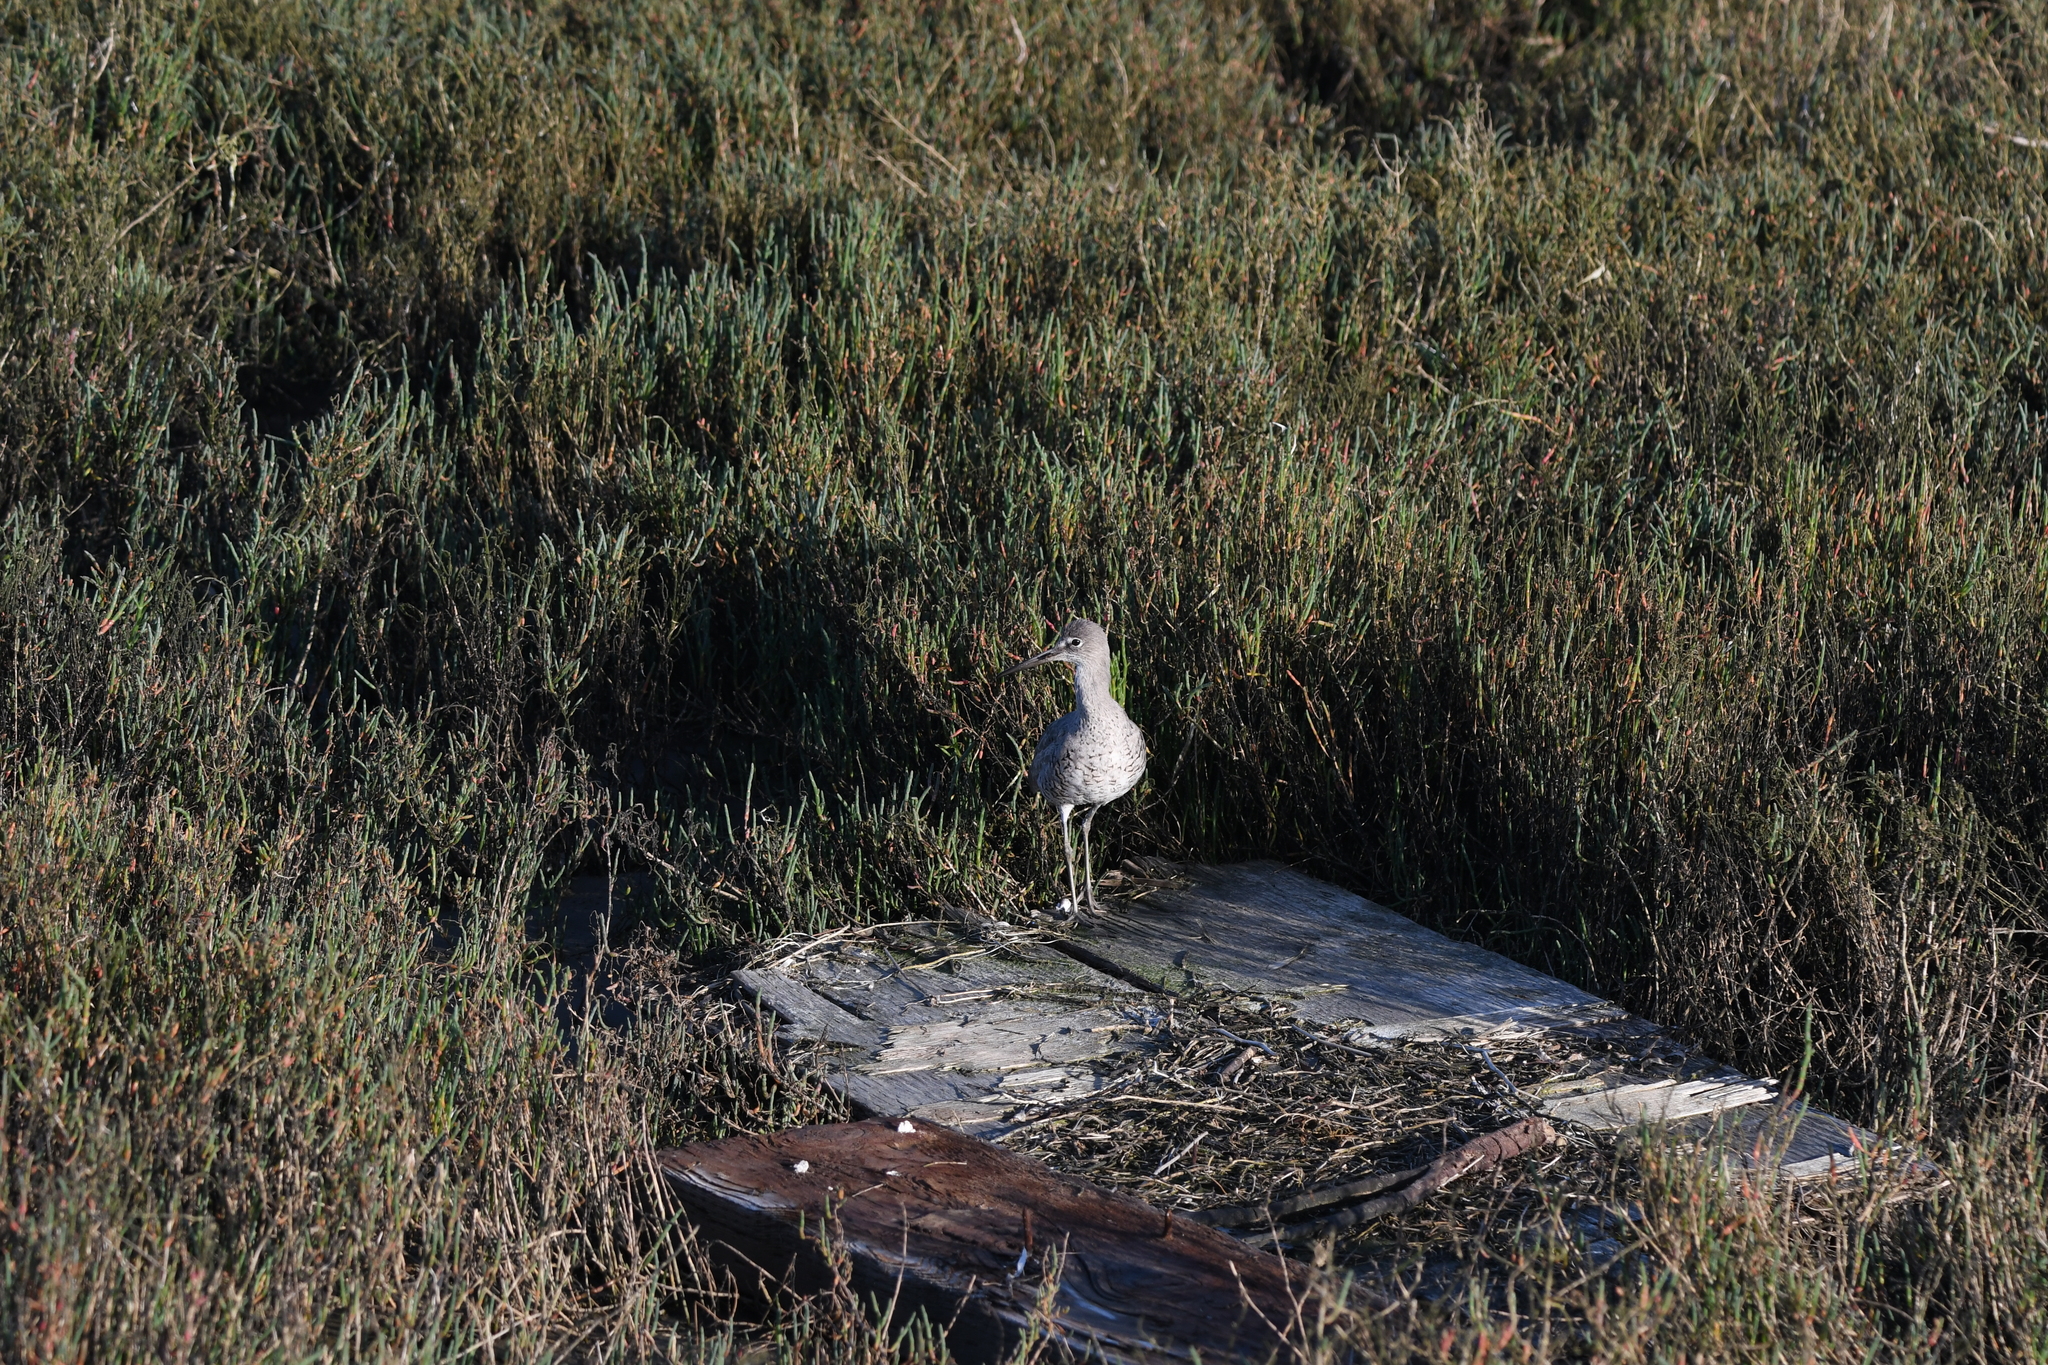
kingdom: Animalia
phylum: Chordata
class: Aves
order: Charadriiformes
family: Scolopacidae
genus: Tringa
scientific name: Tringa semipalmata
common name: Willet
